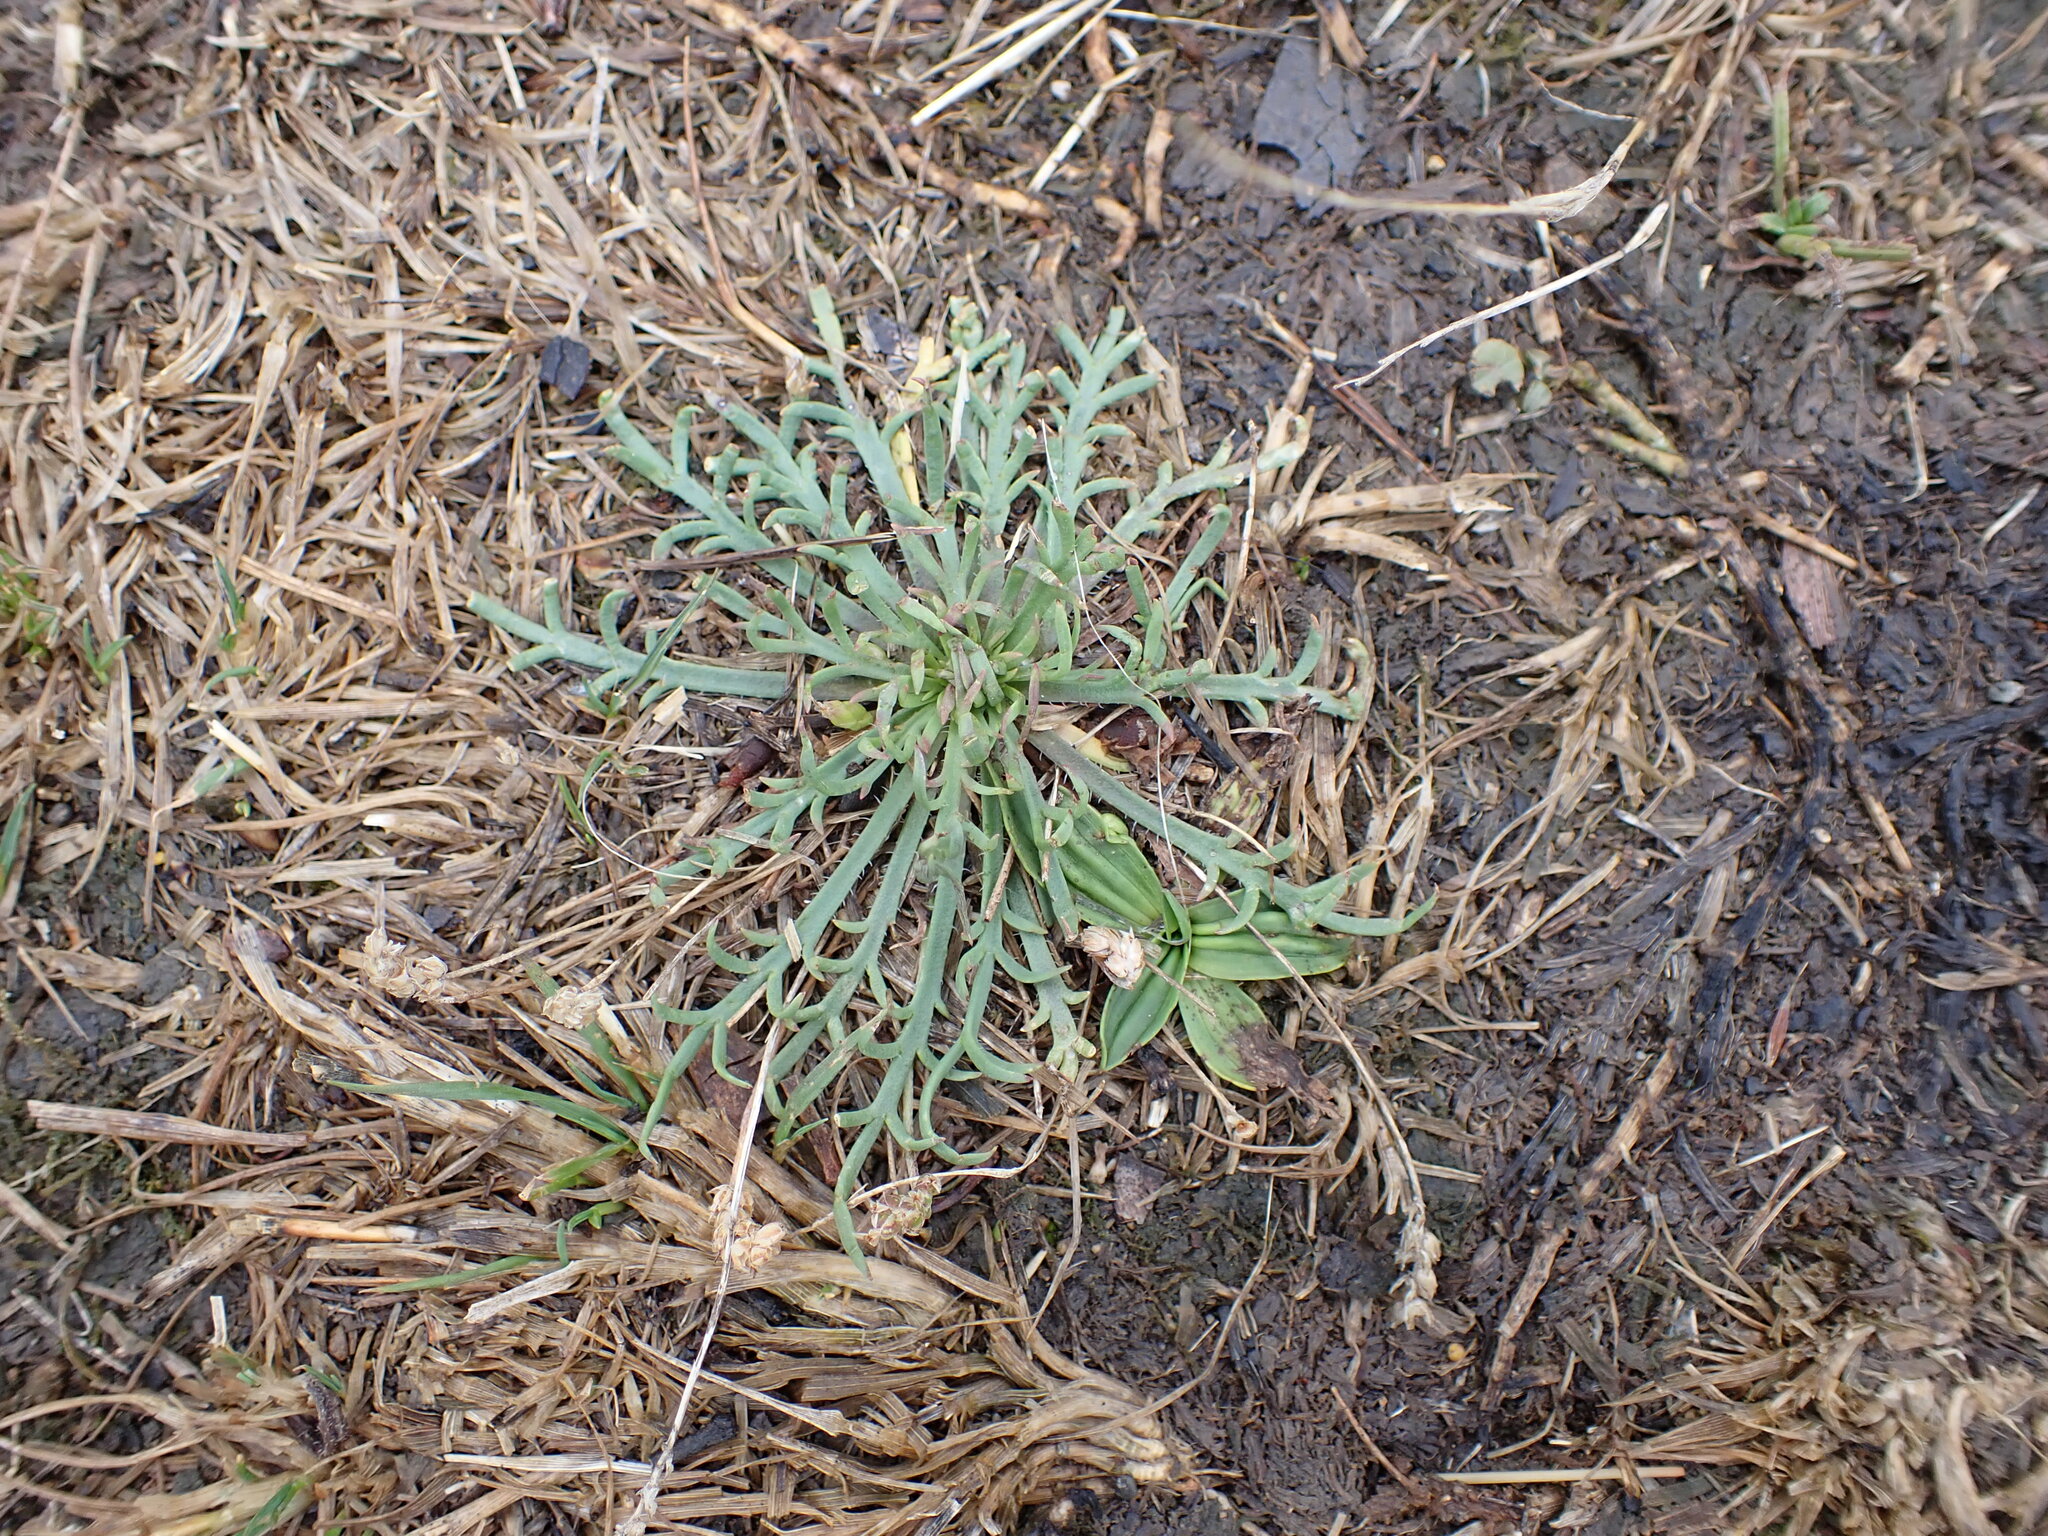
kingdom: Plantae
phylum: Tracheophyta
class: Magnoliopsida
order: Lamiales
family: Plantaginaceae
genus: Plantago
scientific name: Plantago coronopus
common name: Buck's-horn plantain
